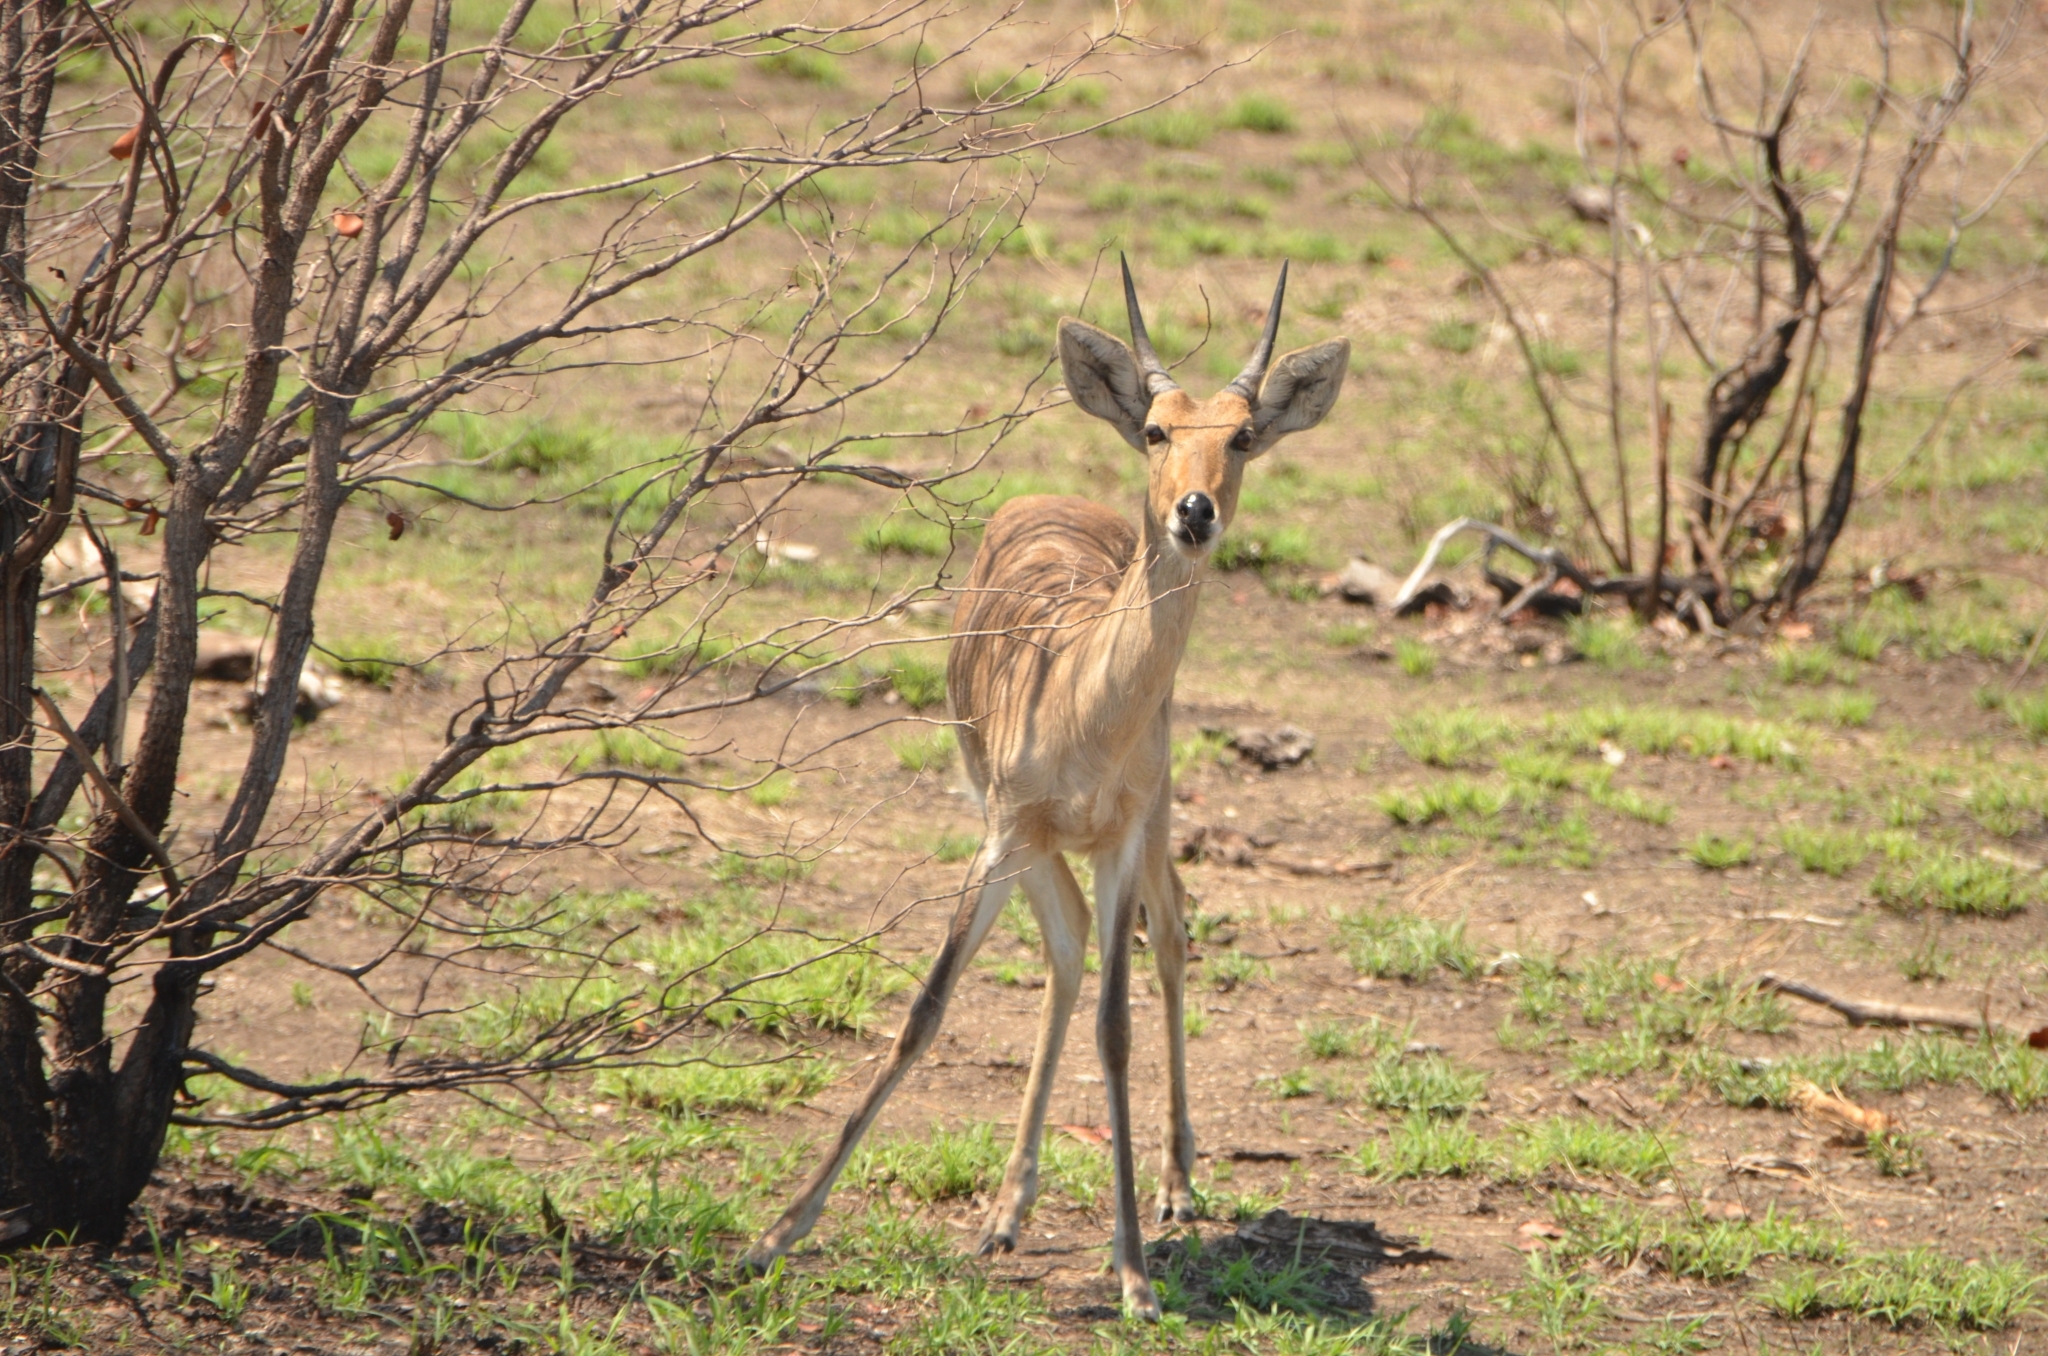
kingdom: Animalia
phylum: Chordata
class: Mammalia
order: Artiodactyla
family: Bovidae
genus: Redunca
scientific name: Redunca arundinum
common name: Southern reedbuck
